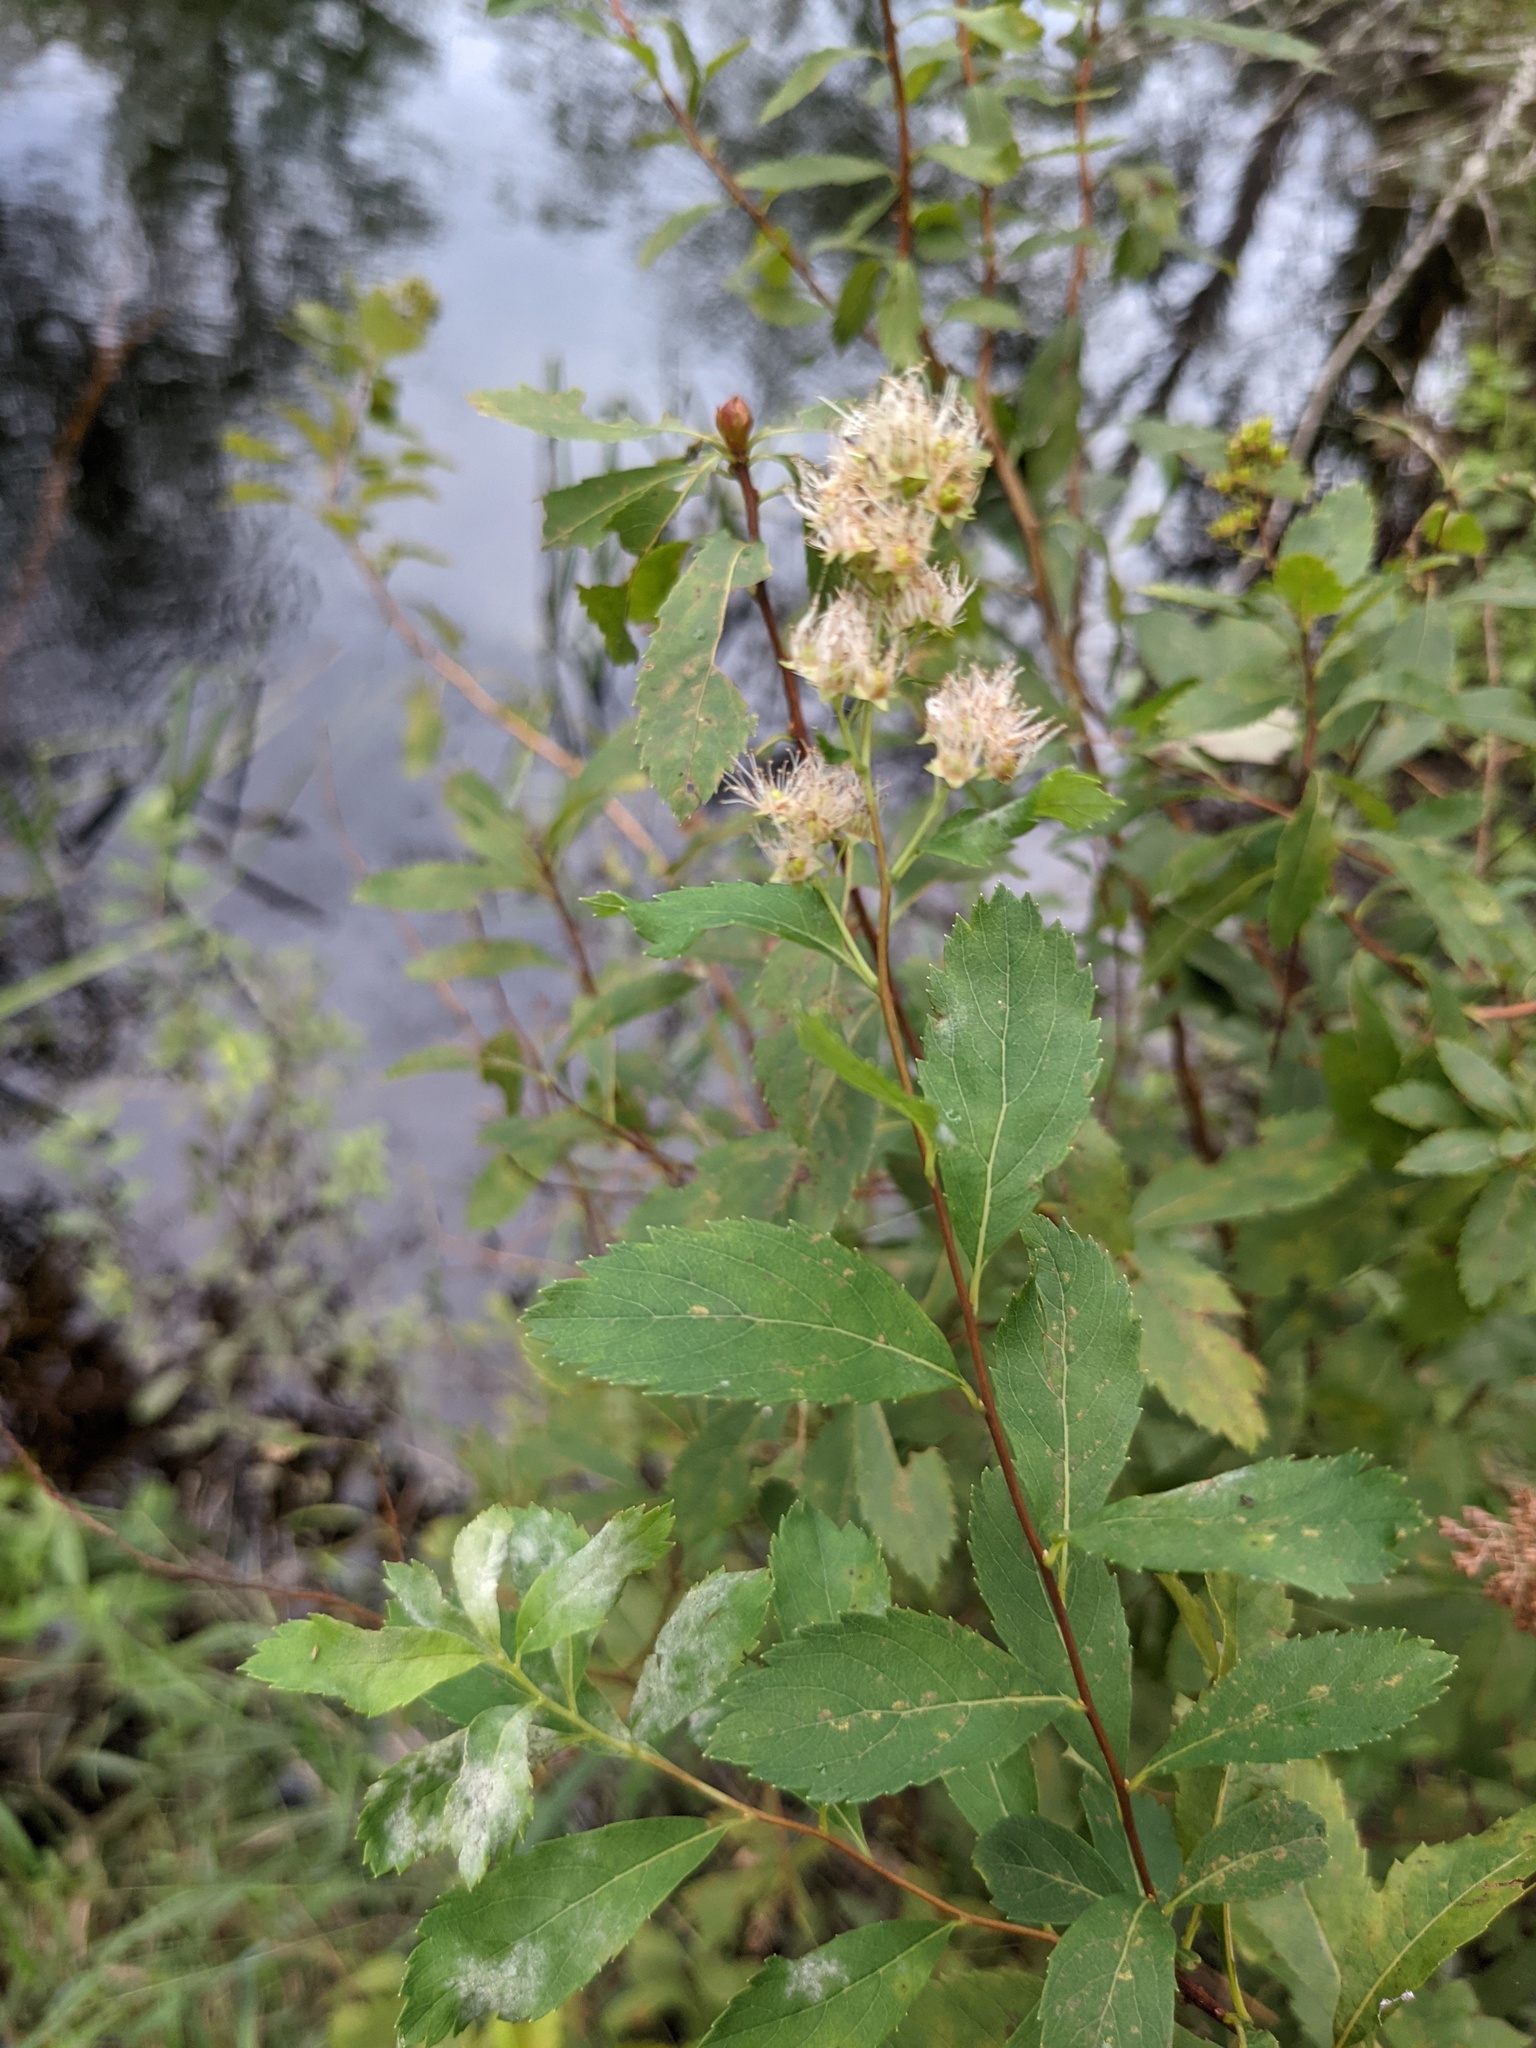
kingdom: Plantae
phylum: Tracheophyta
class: Magnoliopsida
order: Rosales
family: Rosaceae
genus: Spiraea
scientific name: Spiraea alba
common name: Pale bridewort
